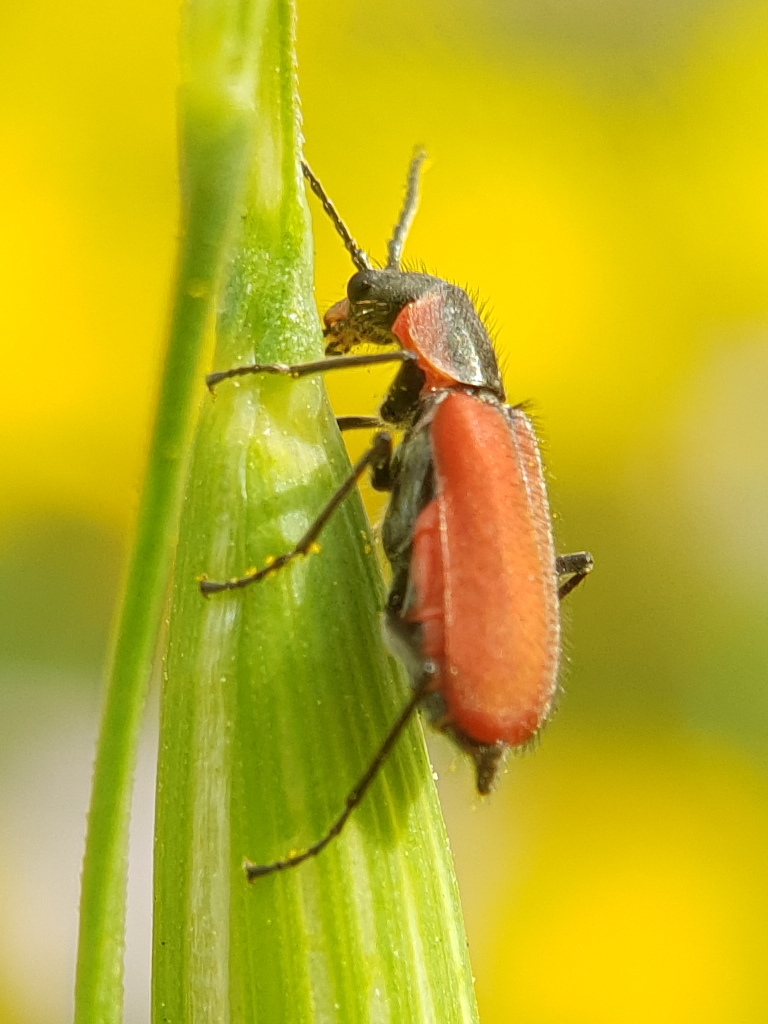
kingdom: Animalia
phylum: Arthropoda
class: Insecta
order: Coleoptera
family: Melyridae
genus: Malachius
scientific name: Malachius coccineus
